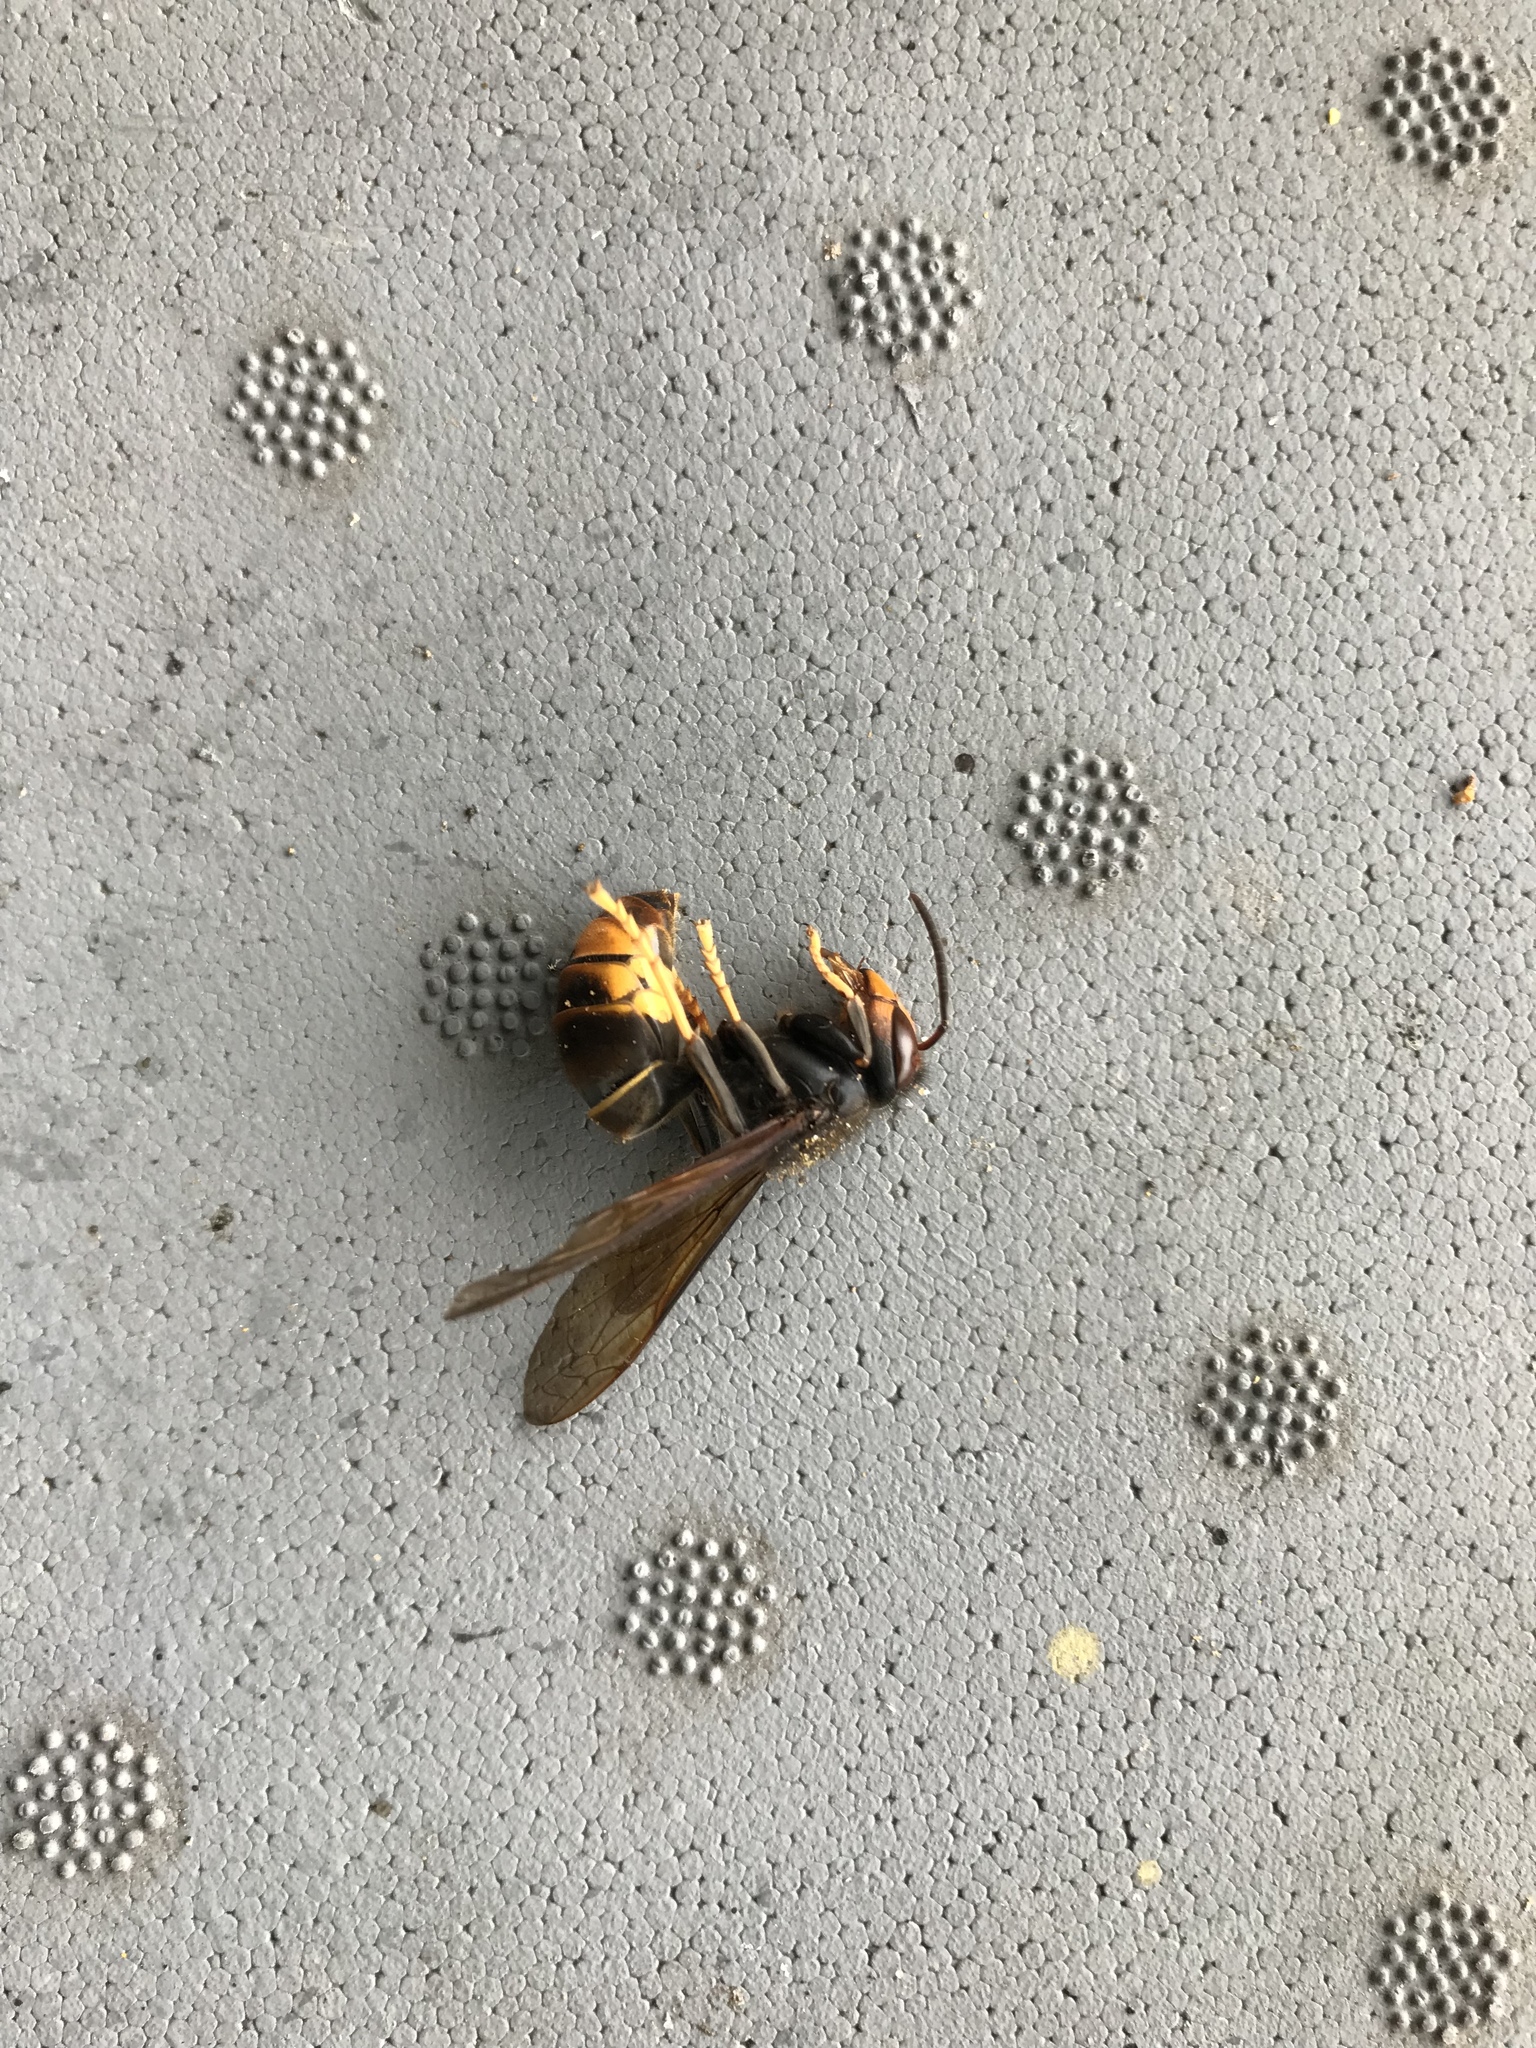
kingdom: Animalia
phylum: Arthropoda
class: Insecta
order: Hymenoptera
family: Vespidae
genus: Vespa
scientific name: Vespa velutina
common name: Asian hornet
